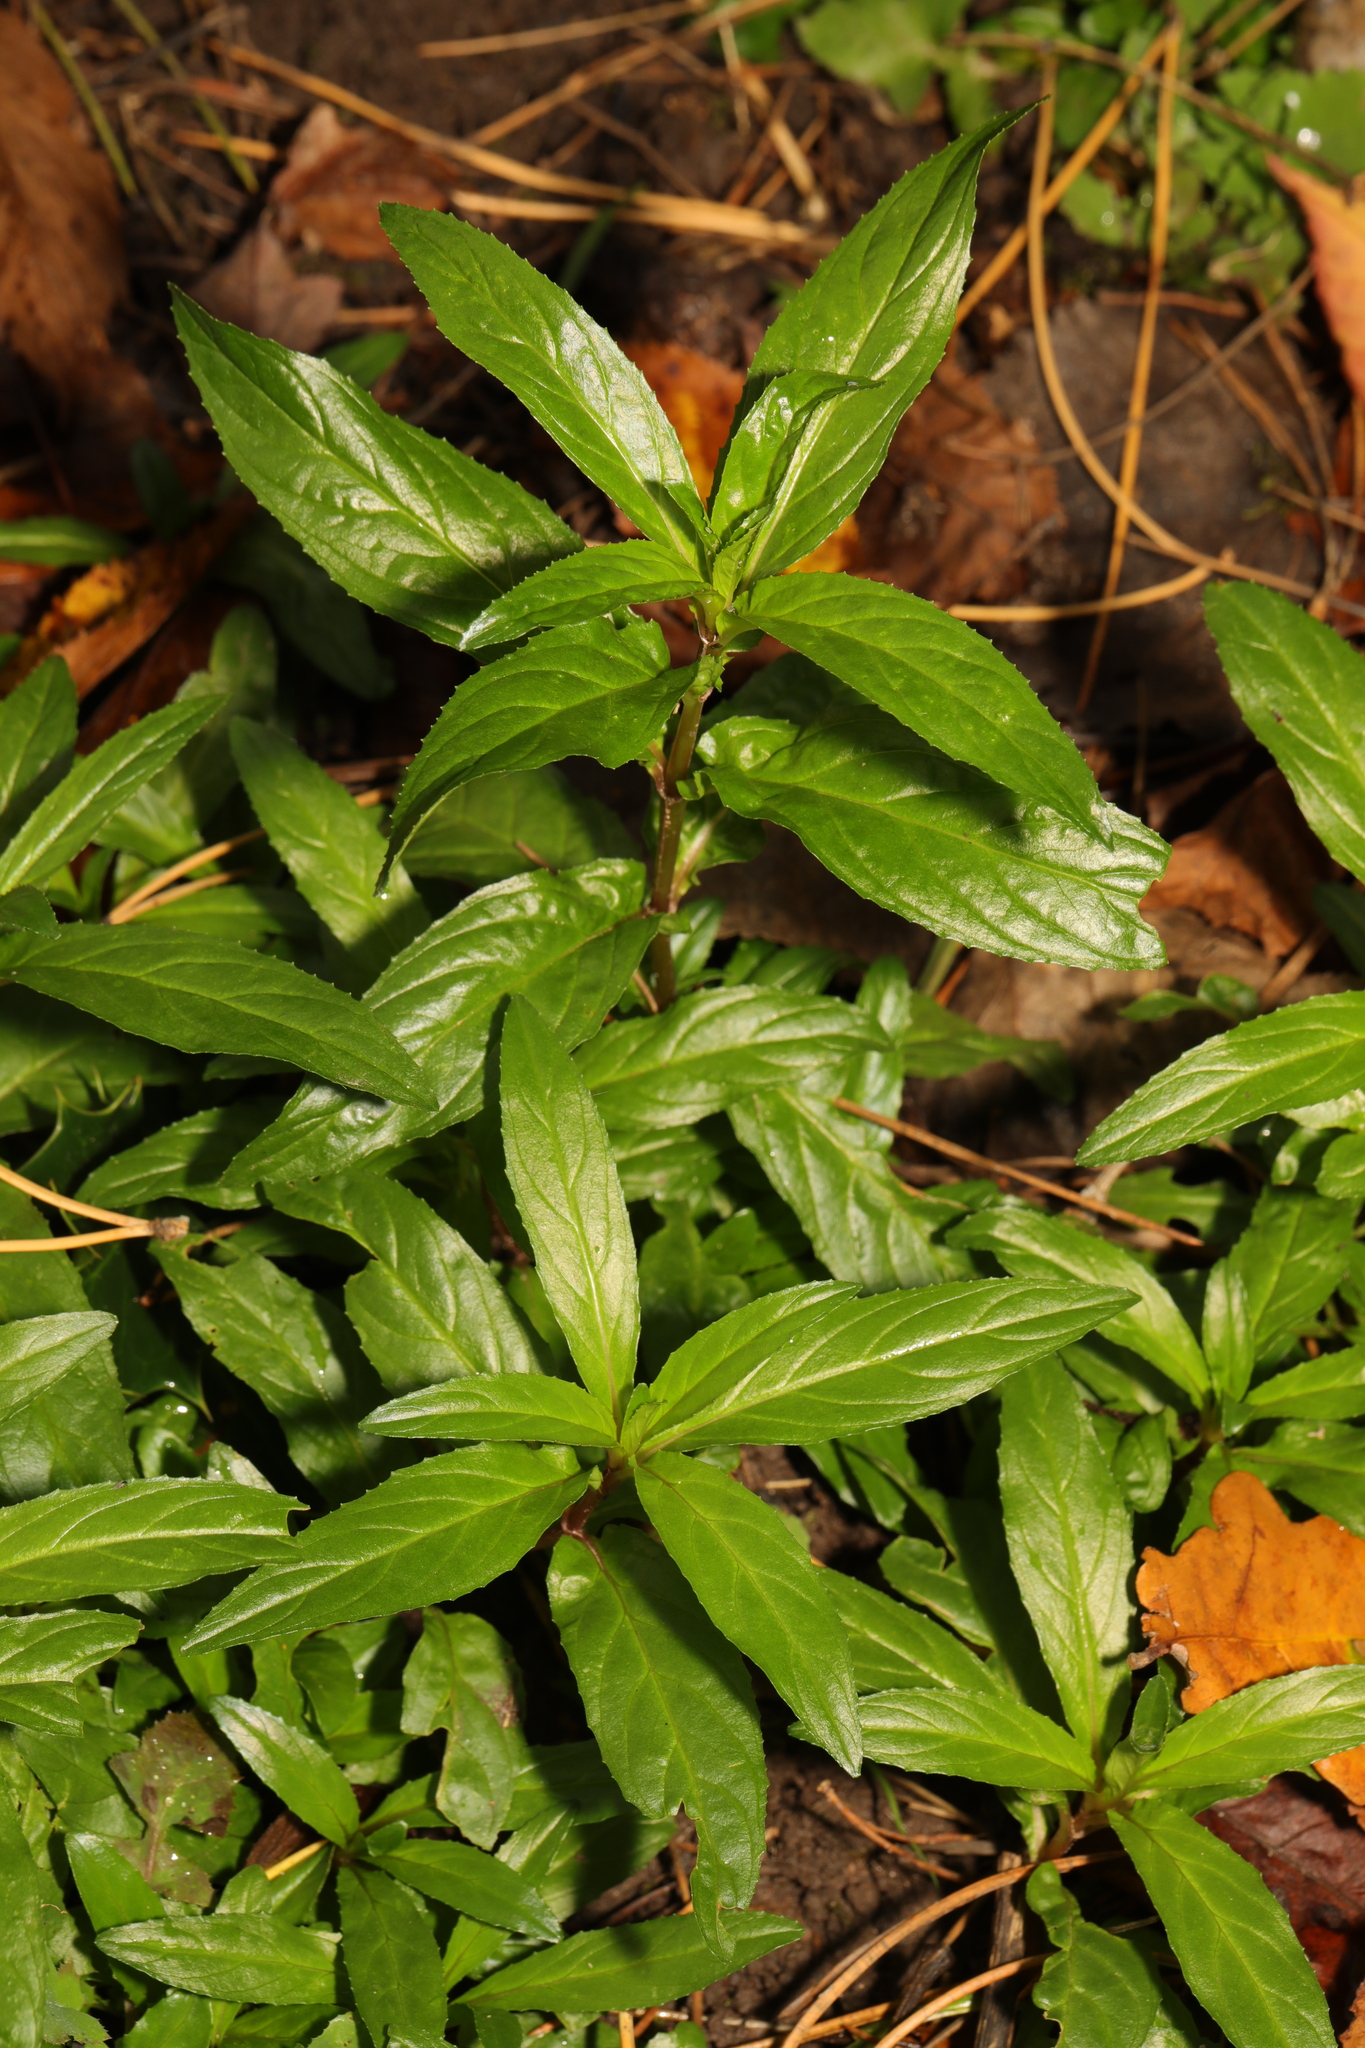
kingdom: Plantae
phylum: Tracheophyta
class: Magnoliopsida
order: Myrtales
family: Onagraceae
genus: Epilobium
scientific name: Epilobium
